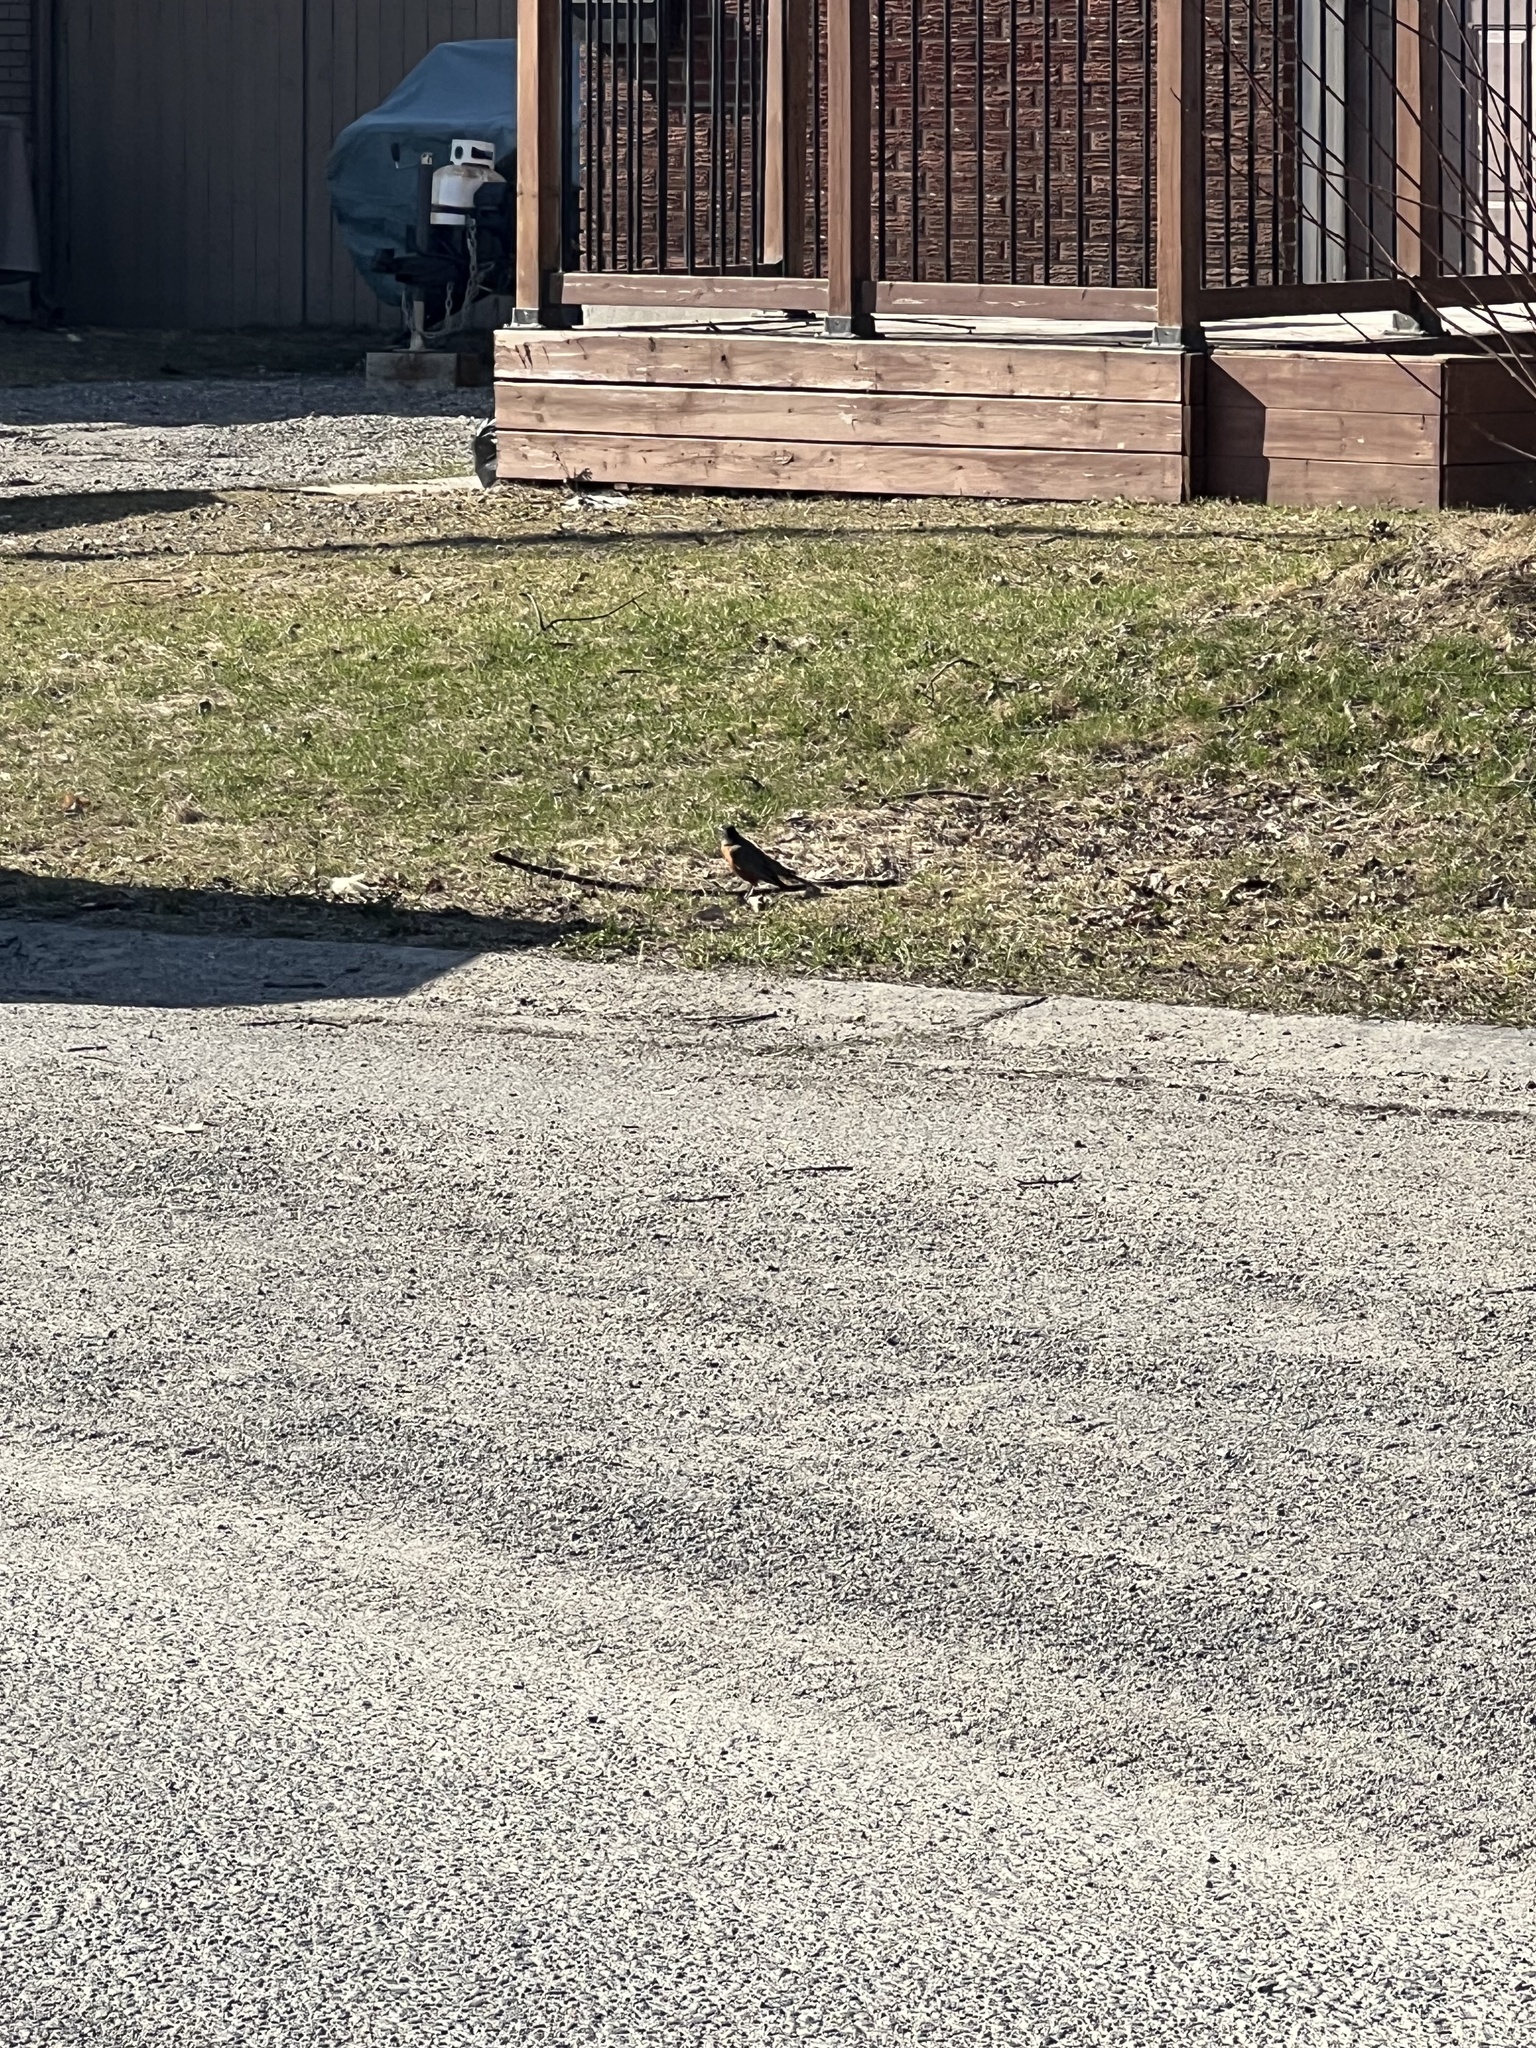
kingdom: Animalia
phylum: Chordata
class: Aves
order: Passeriformes
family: Turdidae
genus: Turdus
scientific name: Turdus migratorius
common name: American robin
